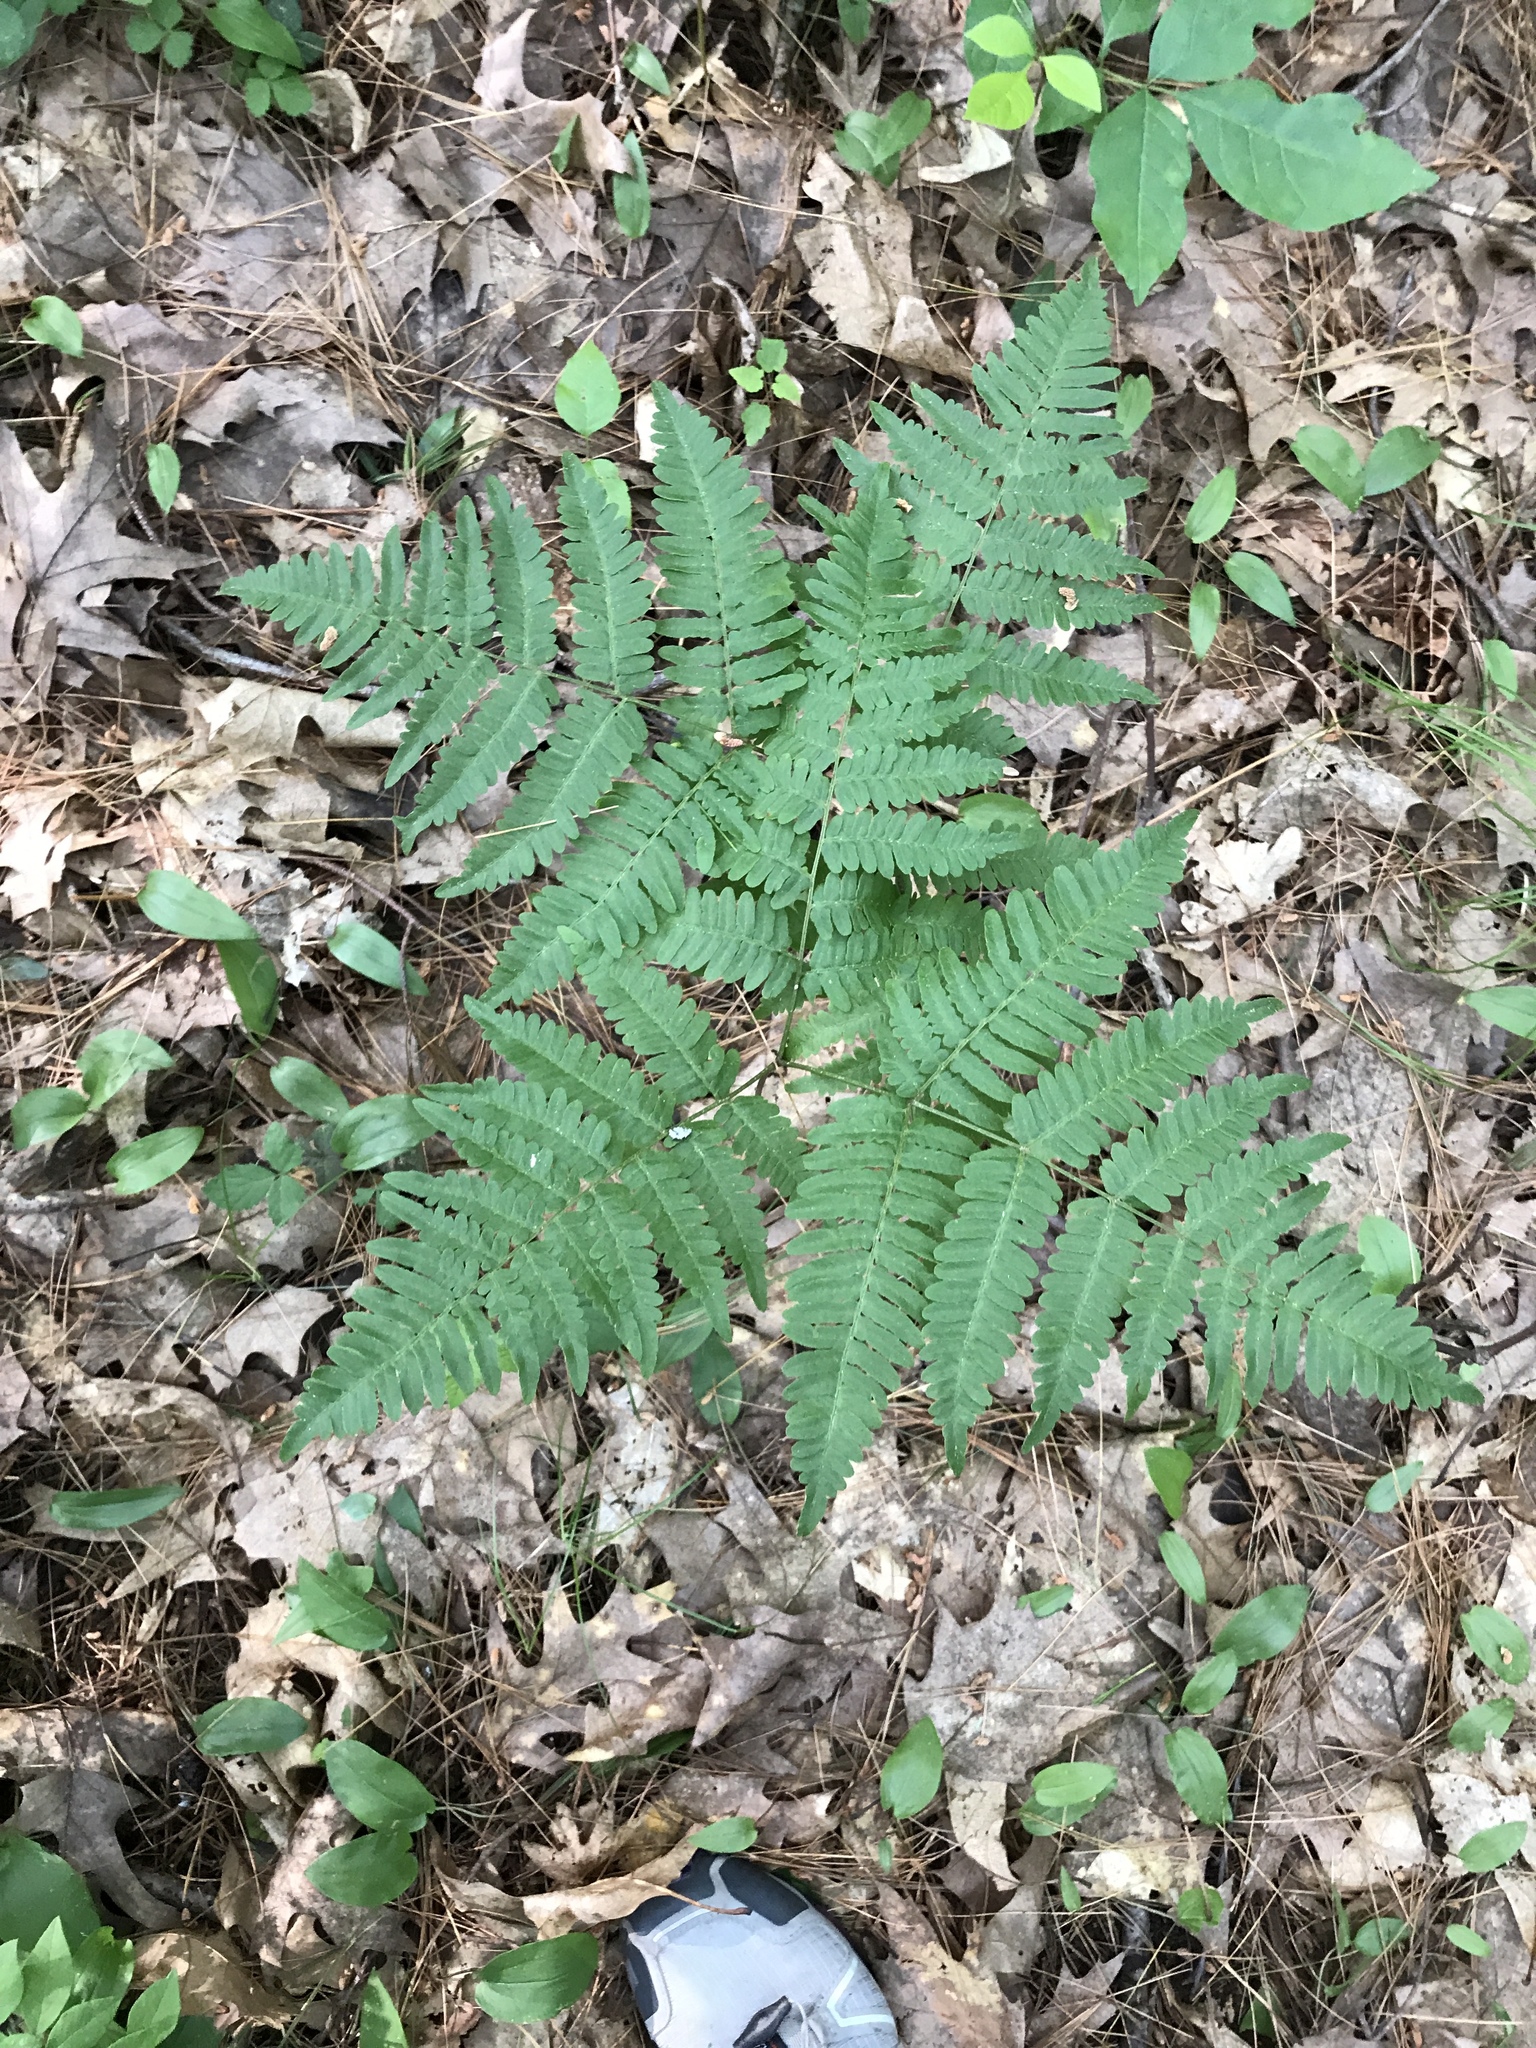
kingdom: Plantae
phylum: Tracheophyta
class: Polypodiopsida
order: Polypodiales
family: Dennstaedtiaceae
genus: Pteridium
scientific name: Pteridium aquilinum
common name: Bracken
